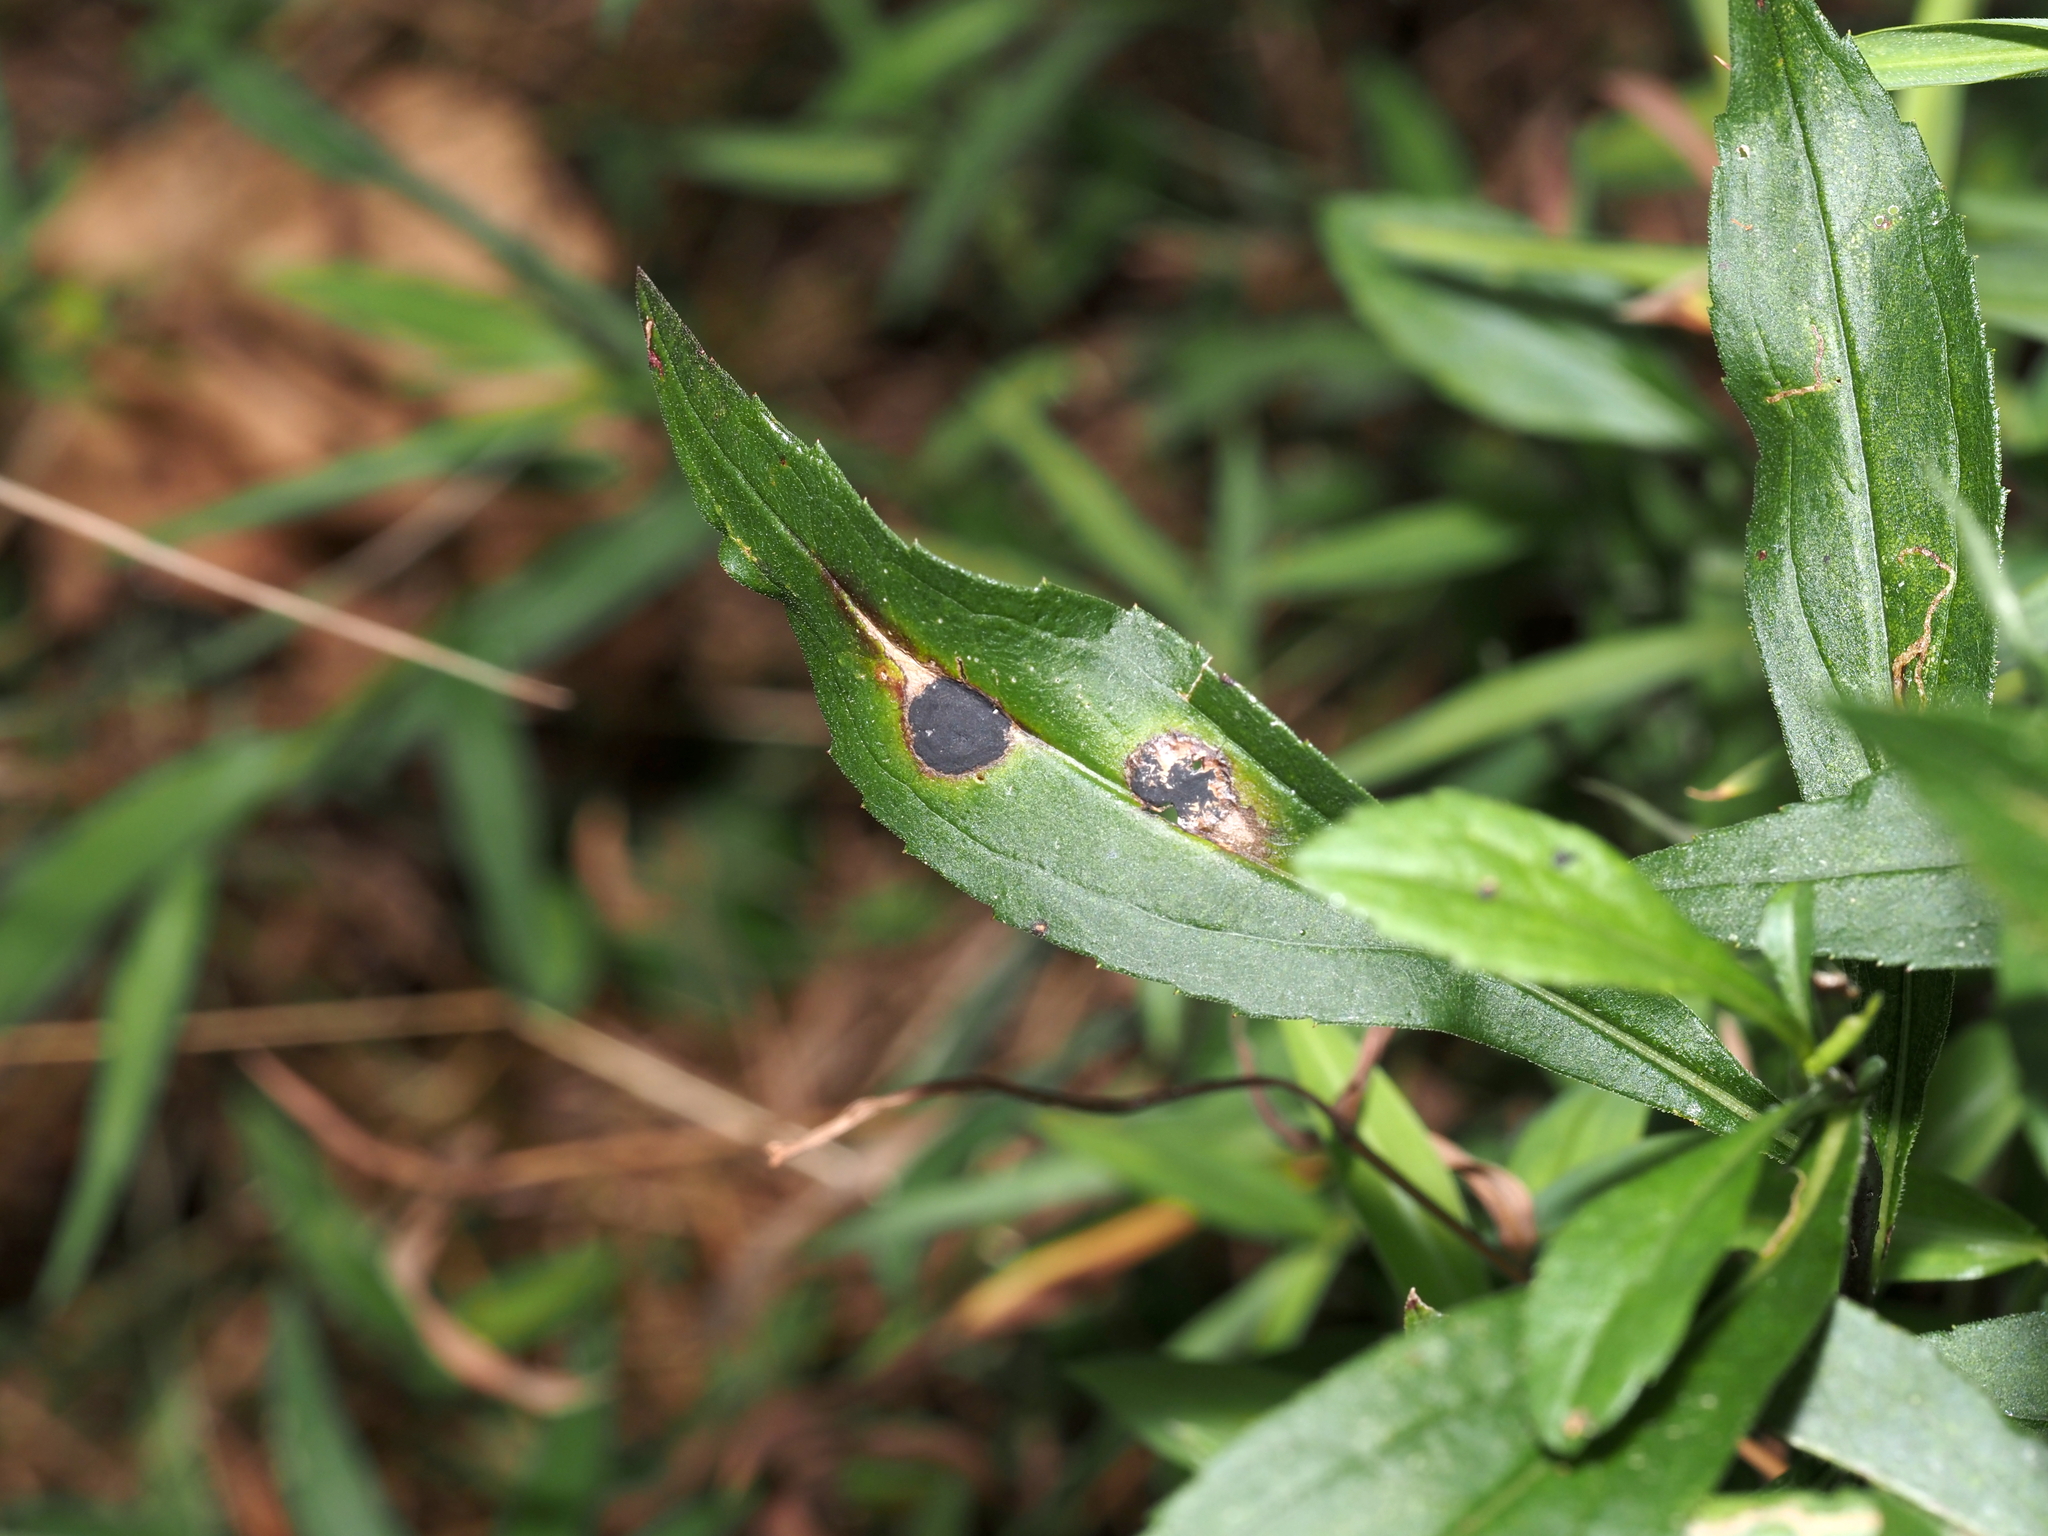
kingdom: Animalia
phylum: Arthropoda
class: Insecta
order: Diptera
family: Cecidomyiidae
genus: Asteromyia
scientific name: Asteromyia carbonifera
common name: Carbonifera goldenrod gall midge
